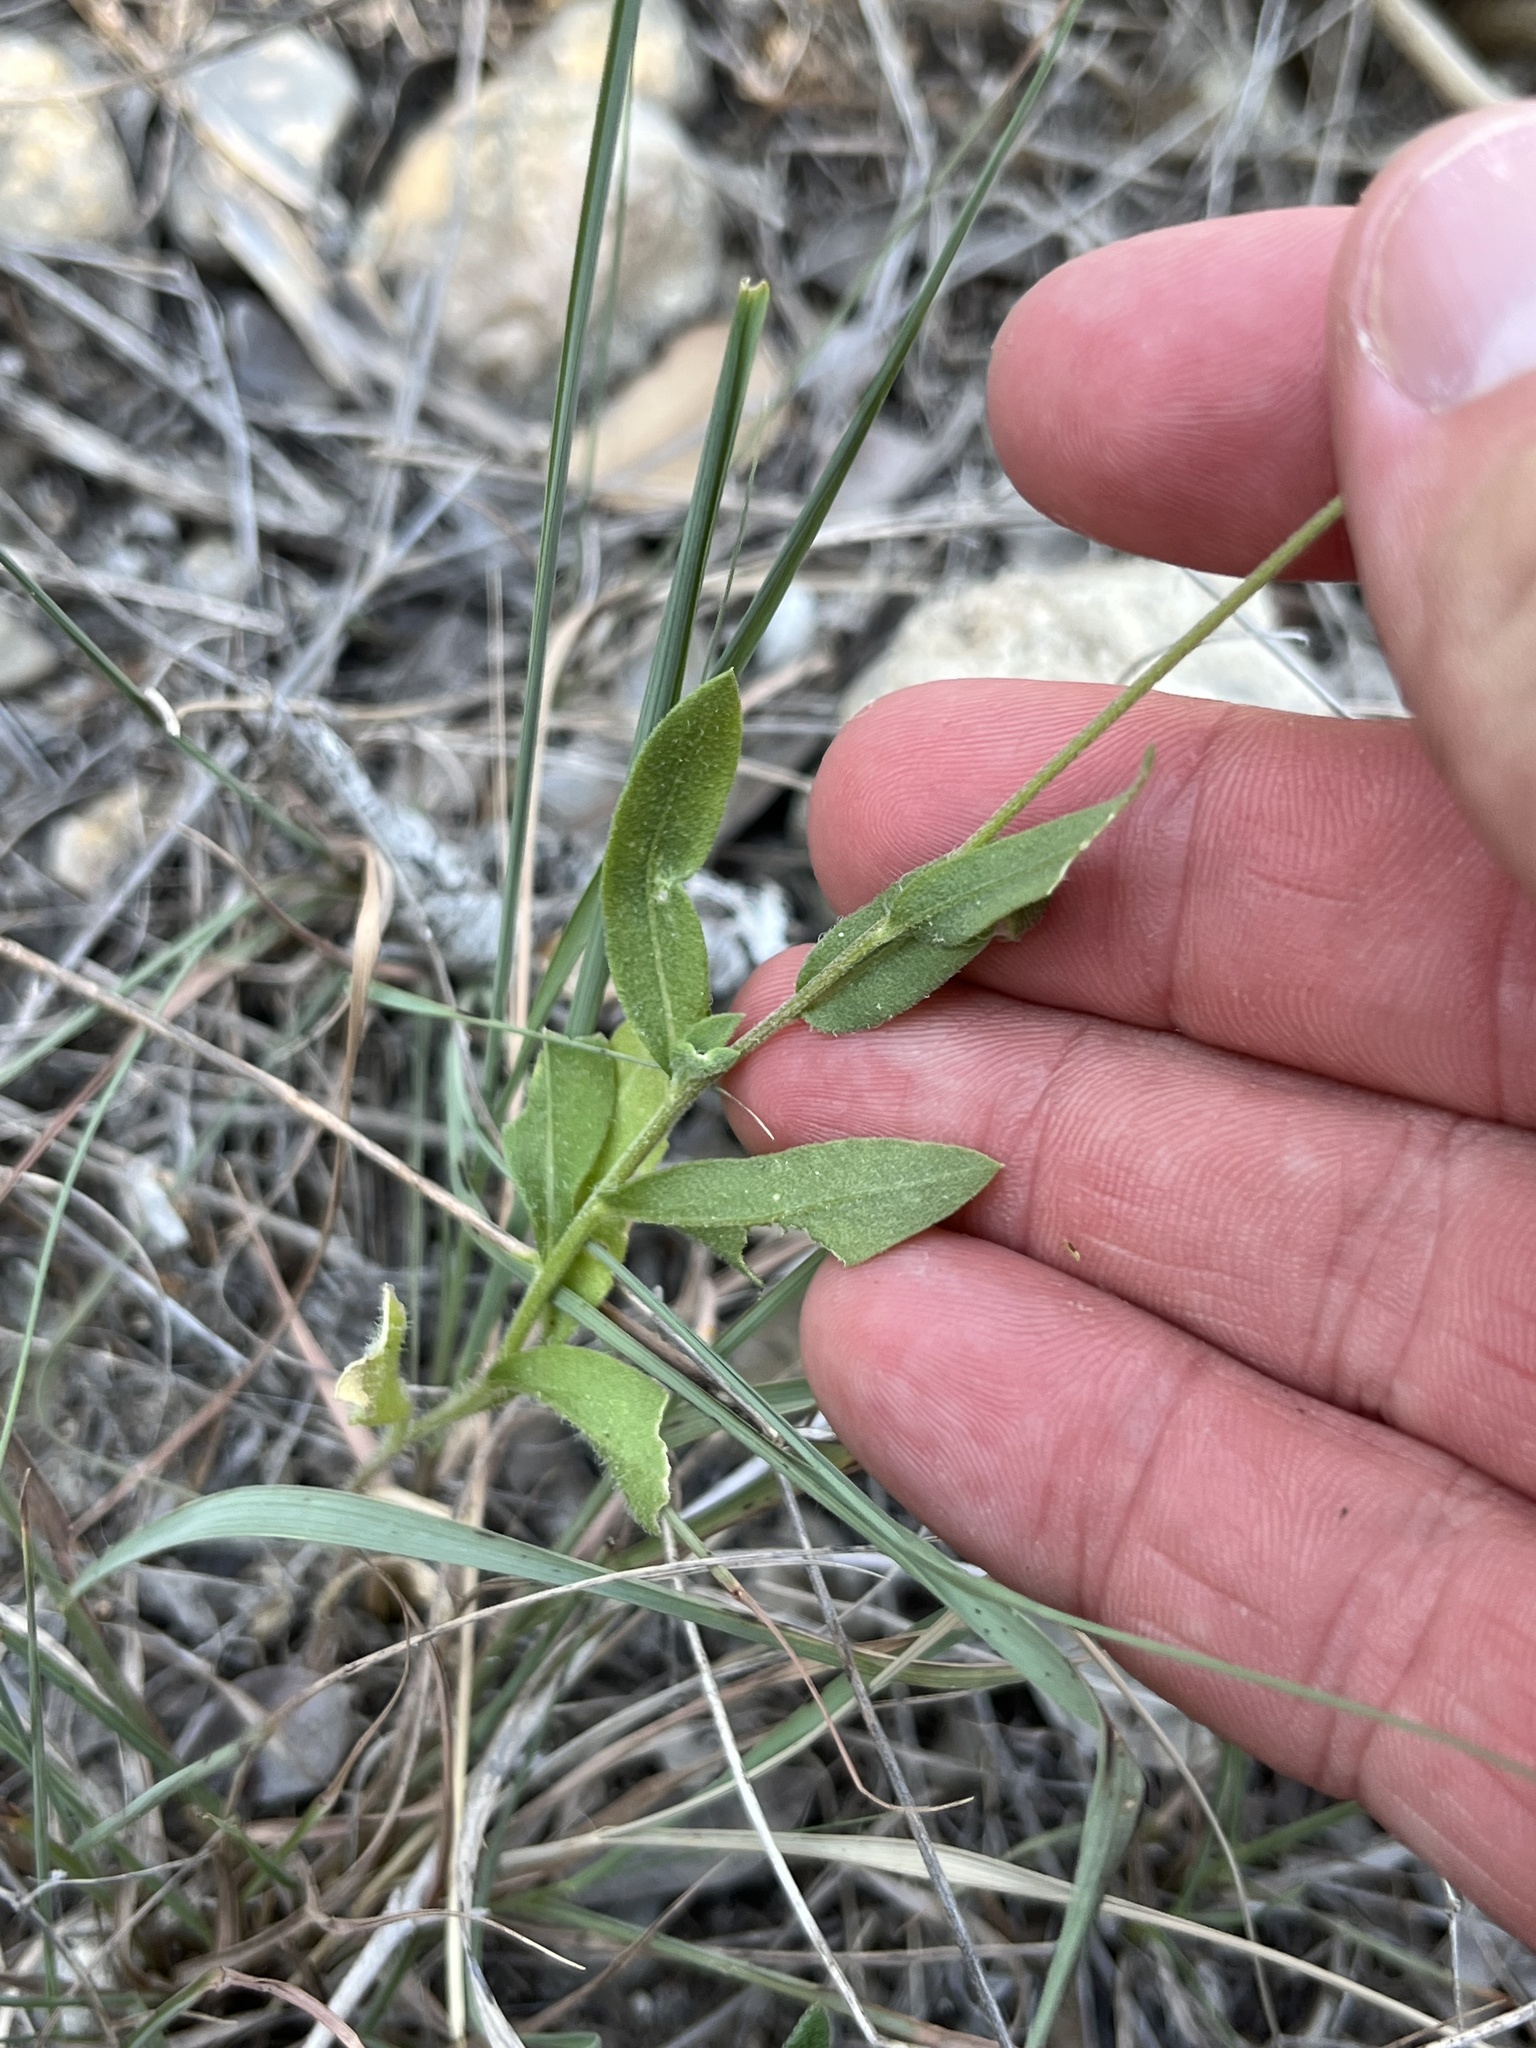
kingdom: Plantae
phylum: Tracheophyta
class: Magnoliopsida
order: Asterales
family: Asteraceae
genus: Gaillardia
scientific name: Gaillardia pulchella
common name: Firewheel
